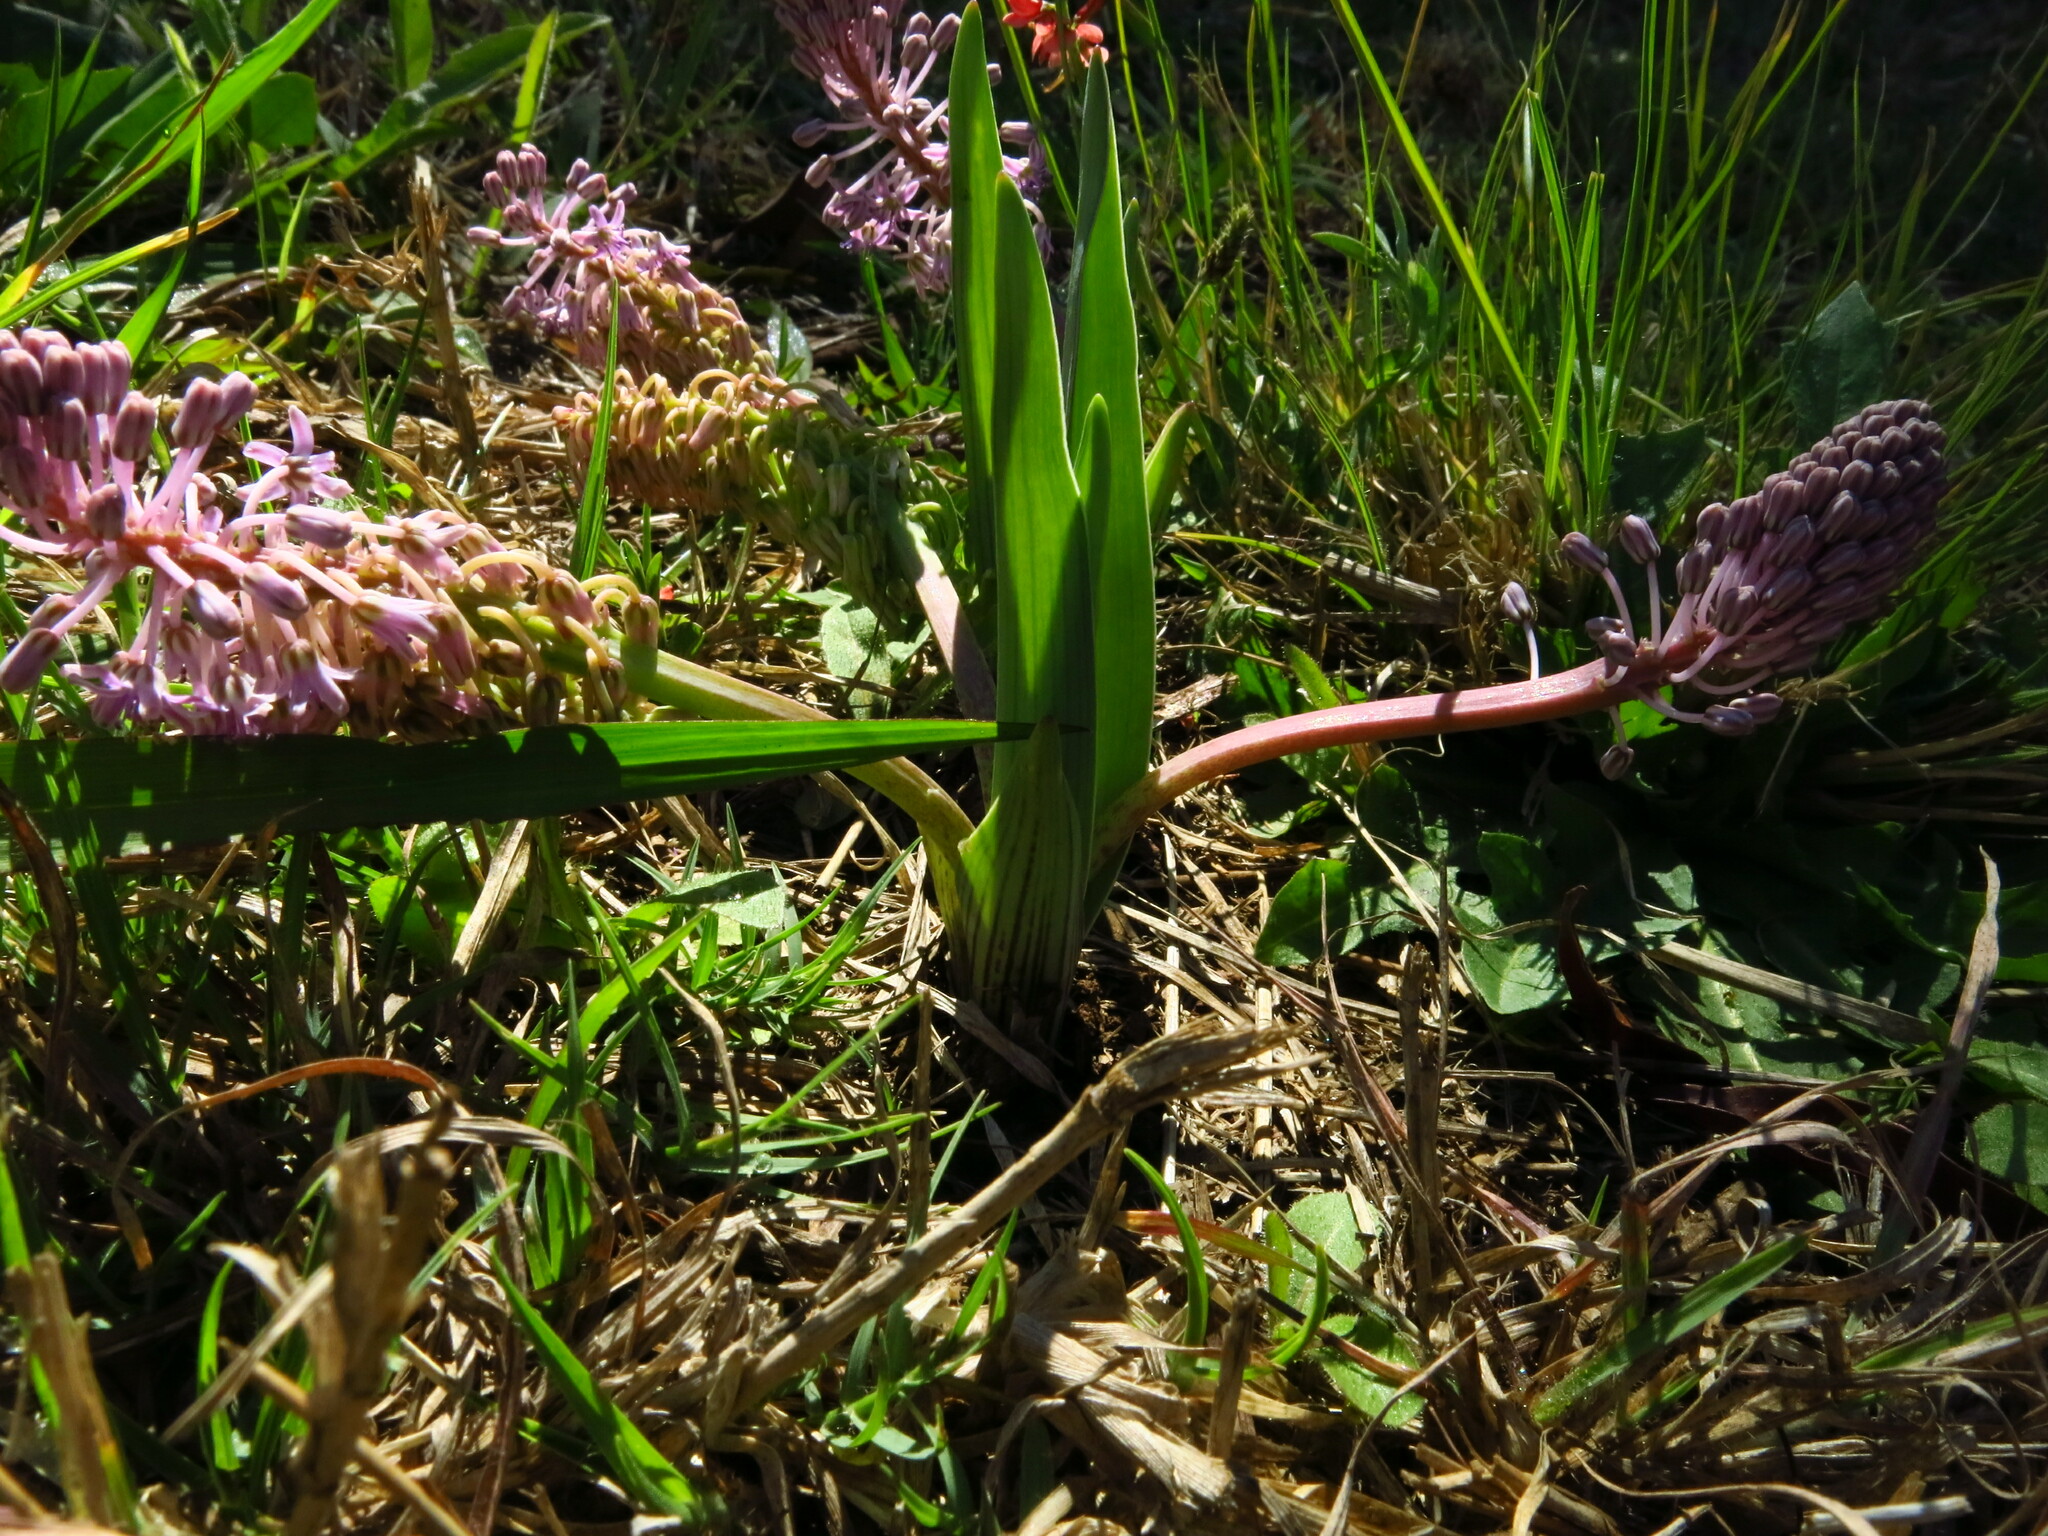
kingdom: Plantae
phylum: Tracheophyta
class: Liliopsida
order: Asparagales
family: Asparagaceae
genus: Ledebouria
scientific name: Ledebouria cooperi
